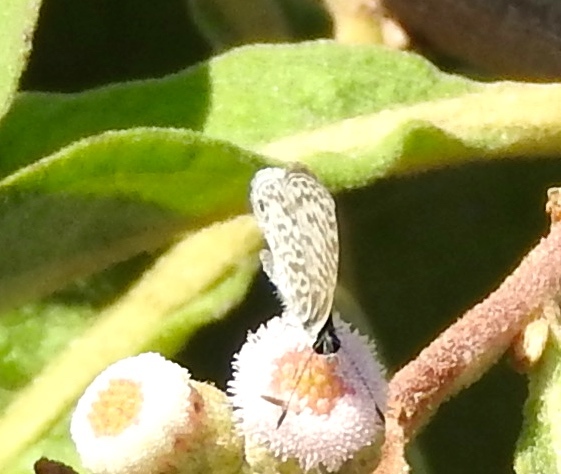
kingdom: Animalia
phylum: Arthropoda
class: Insecta
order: Lepidoptera
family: Lycaenidae
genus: Leptotes
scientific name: Leptotes cassius
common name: Cassius blue
